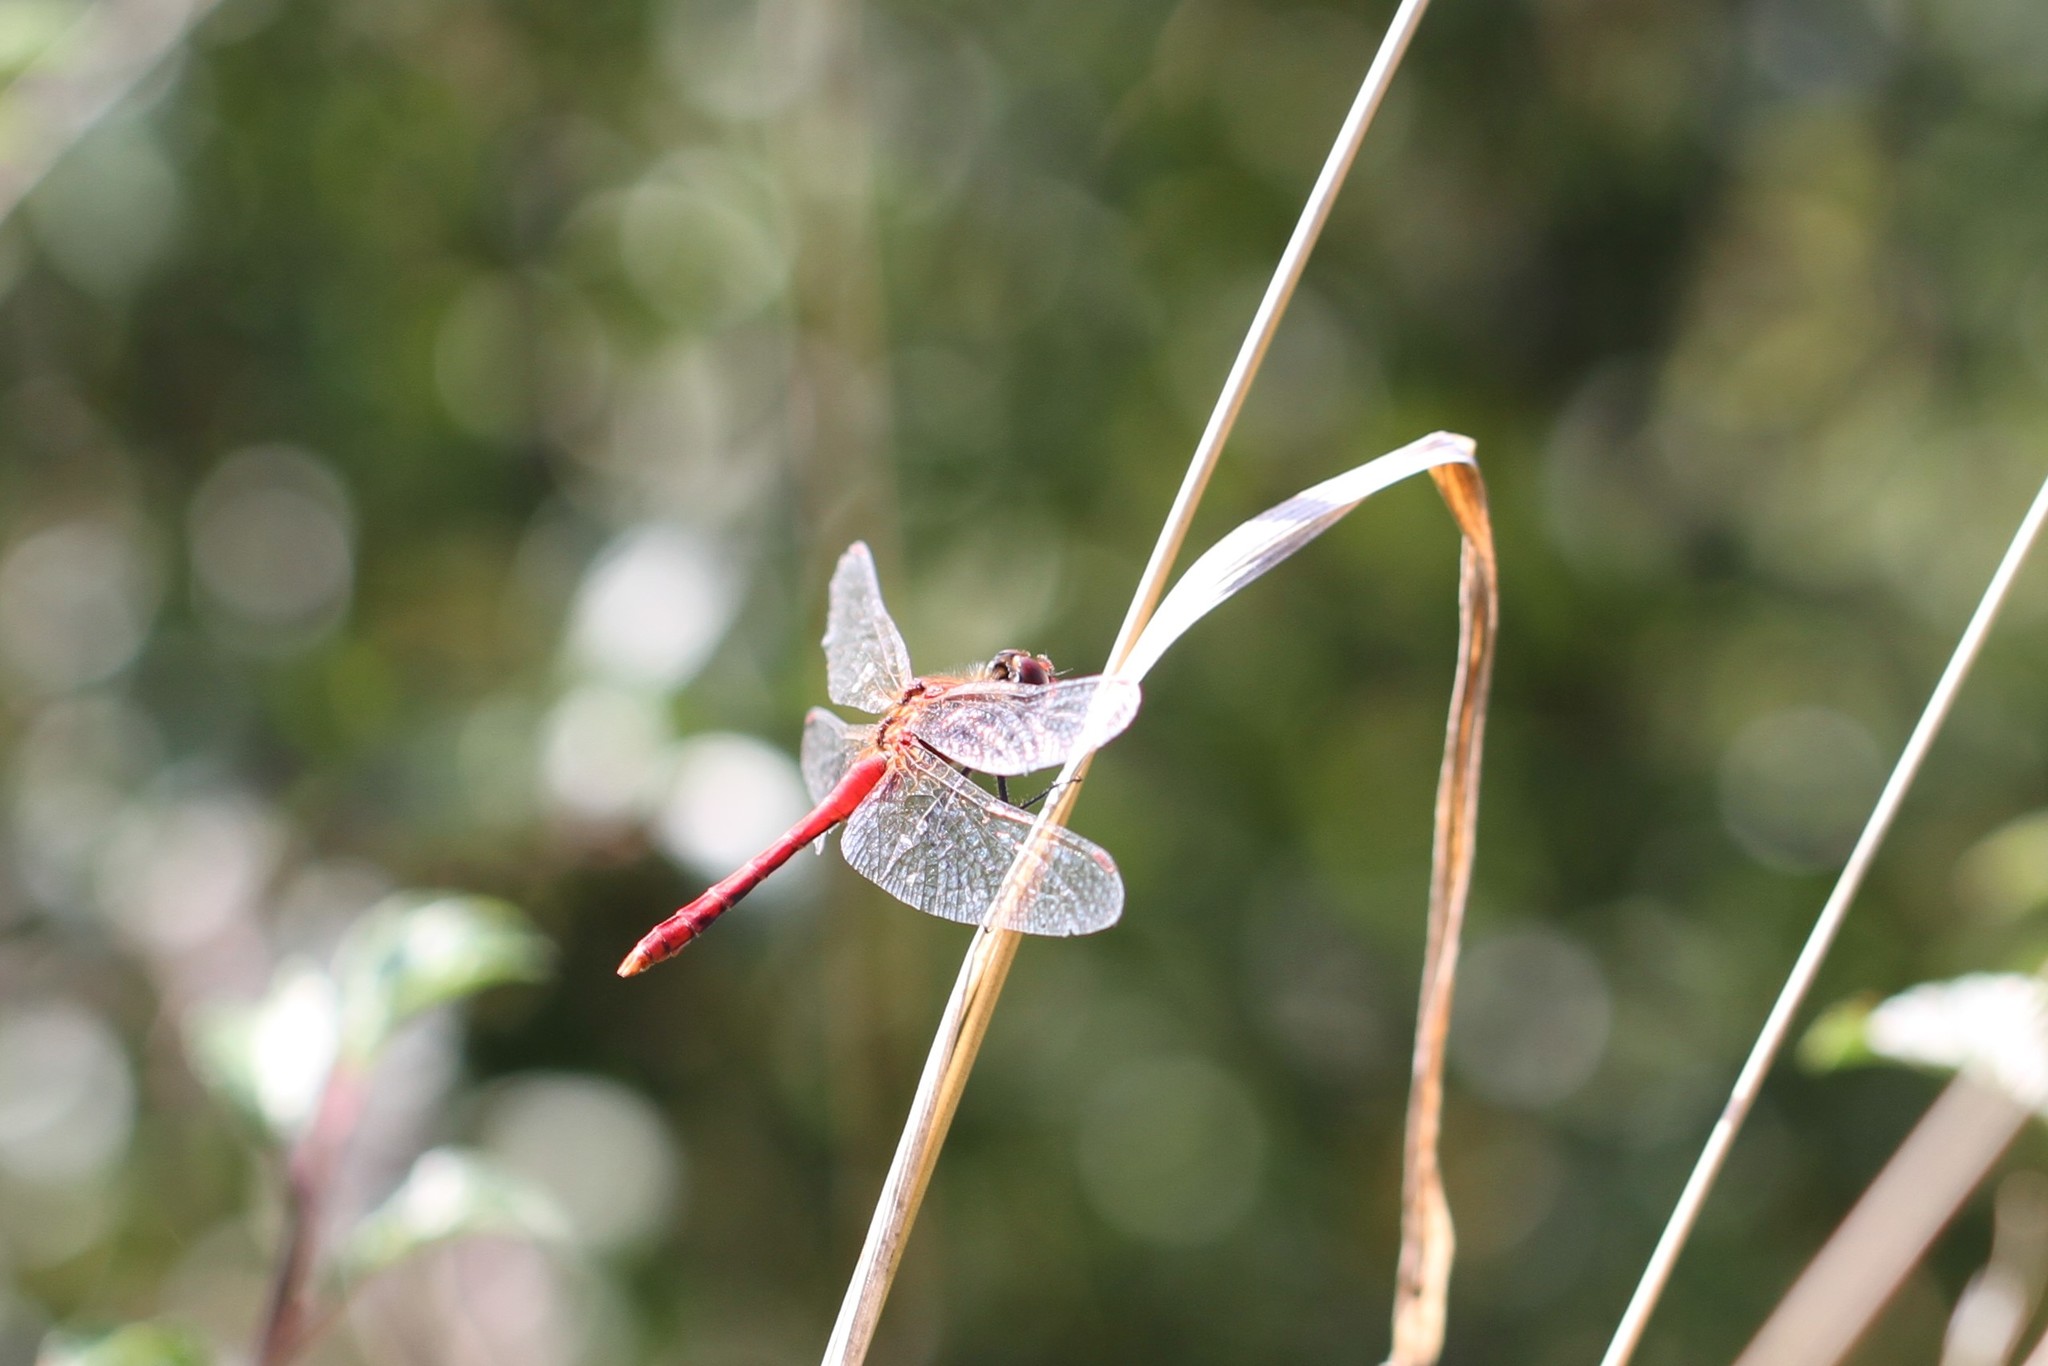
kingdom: Animalia
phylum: Arthropoda
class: Insecta
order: Odonata
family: Libellulidae
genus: Sympetrum
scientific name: Sympetrum sanguineum
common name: Ruddy darter
